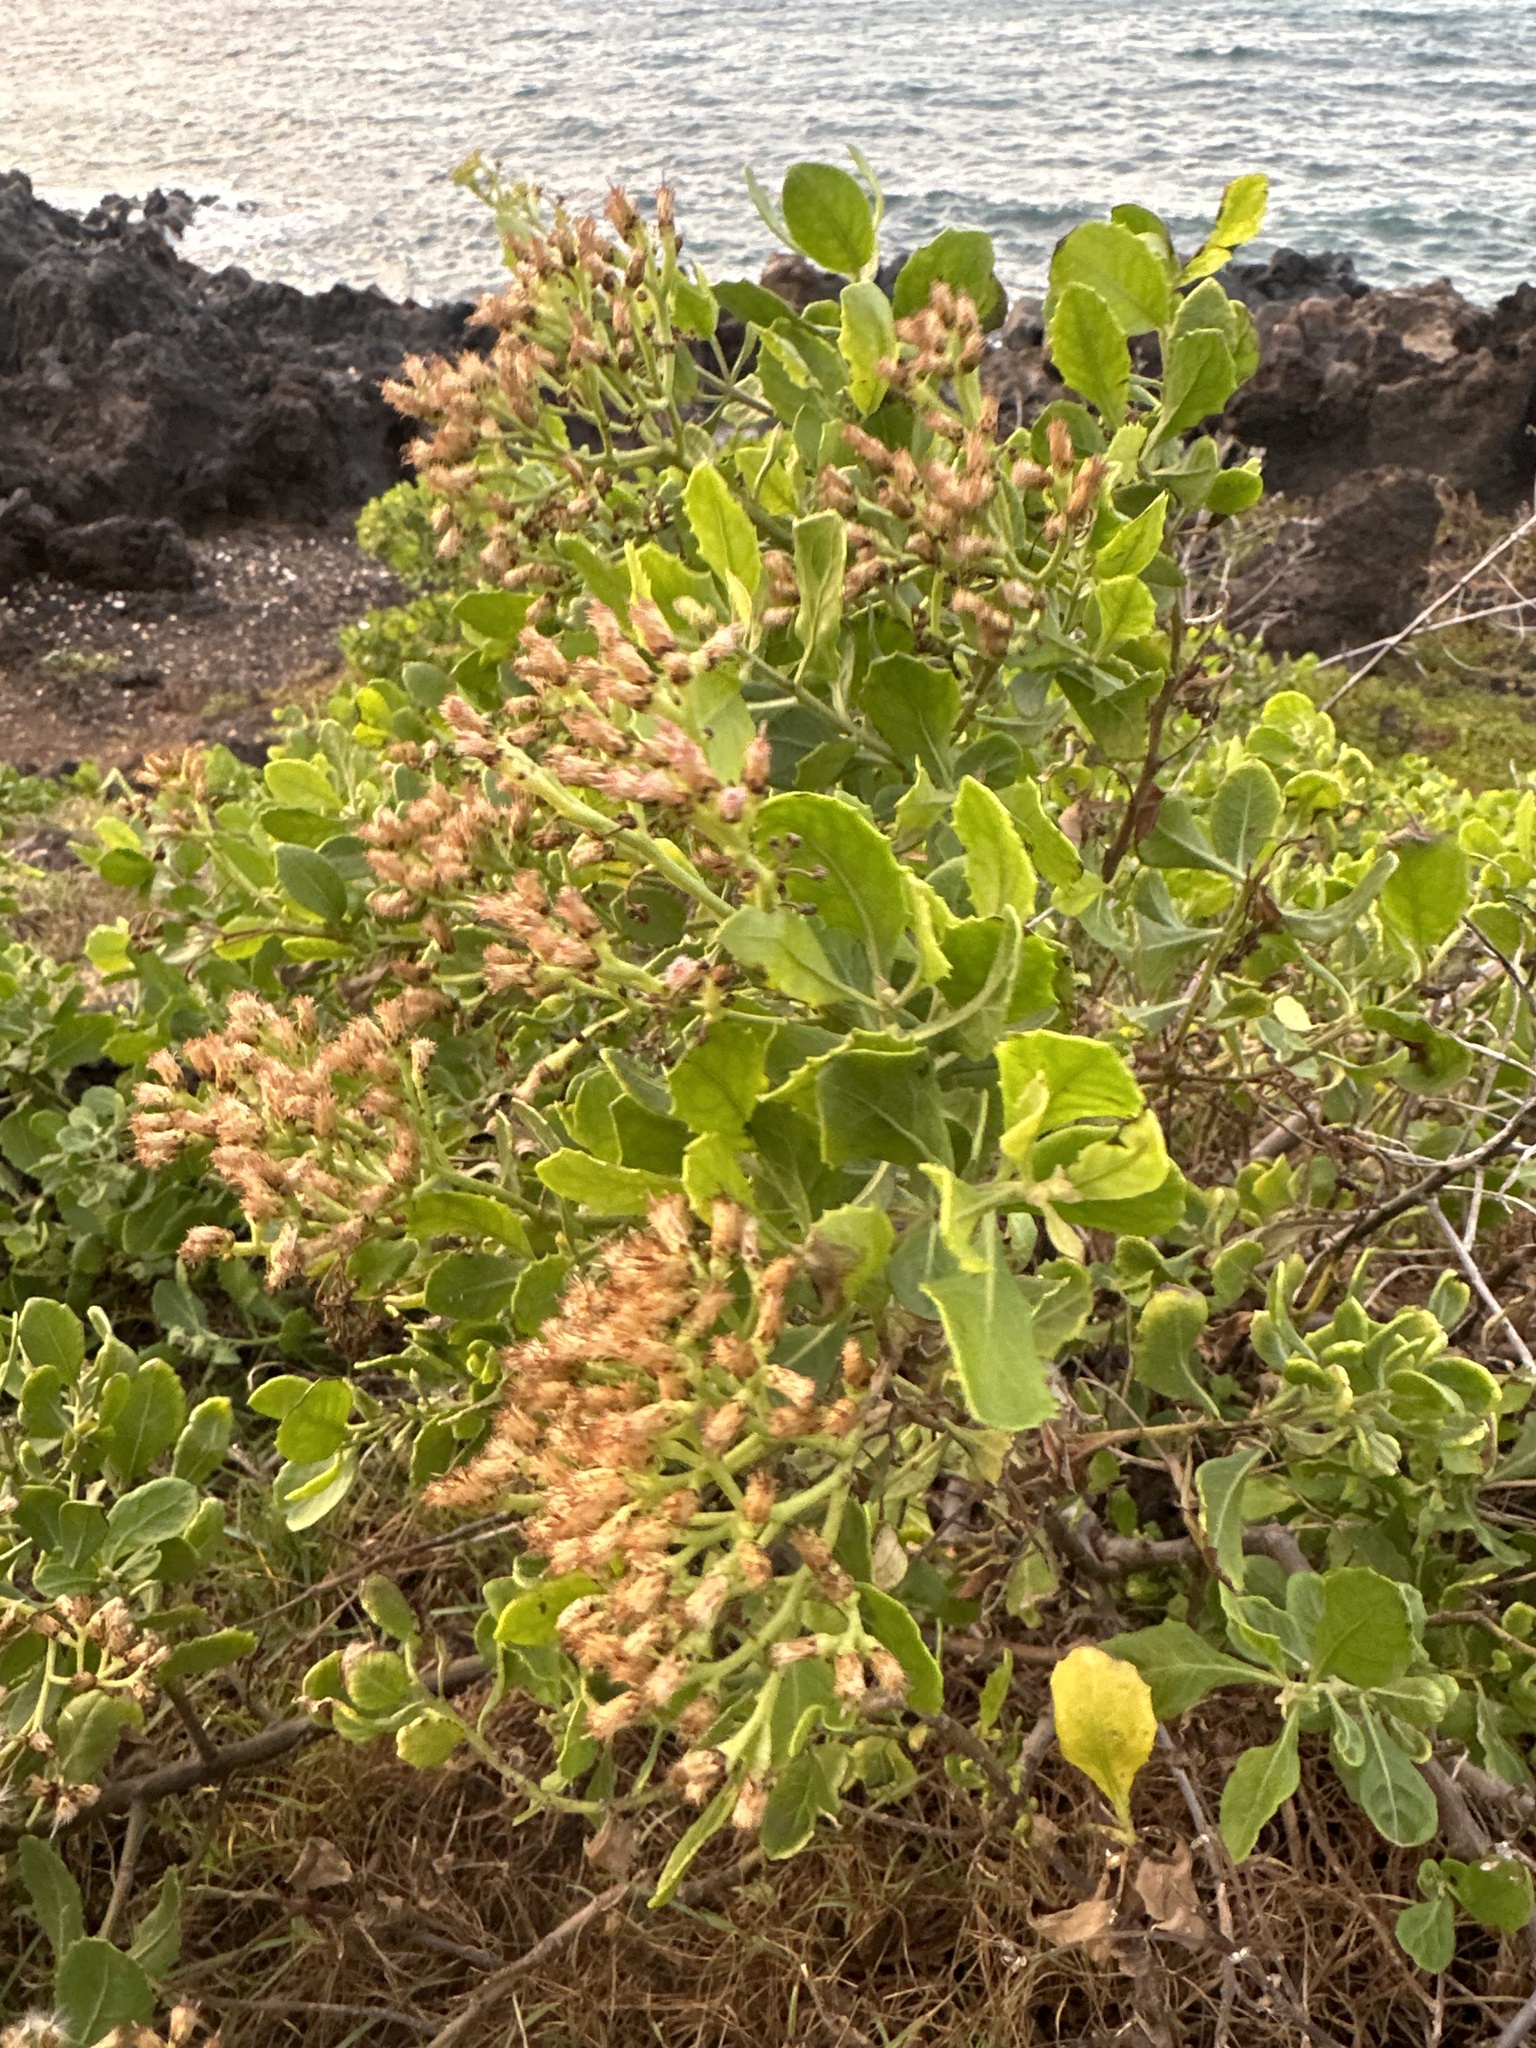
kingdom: Plantae
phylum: Tracheophyta
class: Magnoliopsida
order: Asterales
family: Asteraceae
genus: Pluchea
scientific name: Pluchea indica
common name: Indian fleabane
